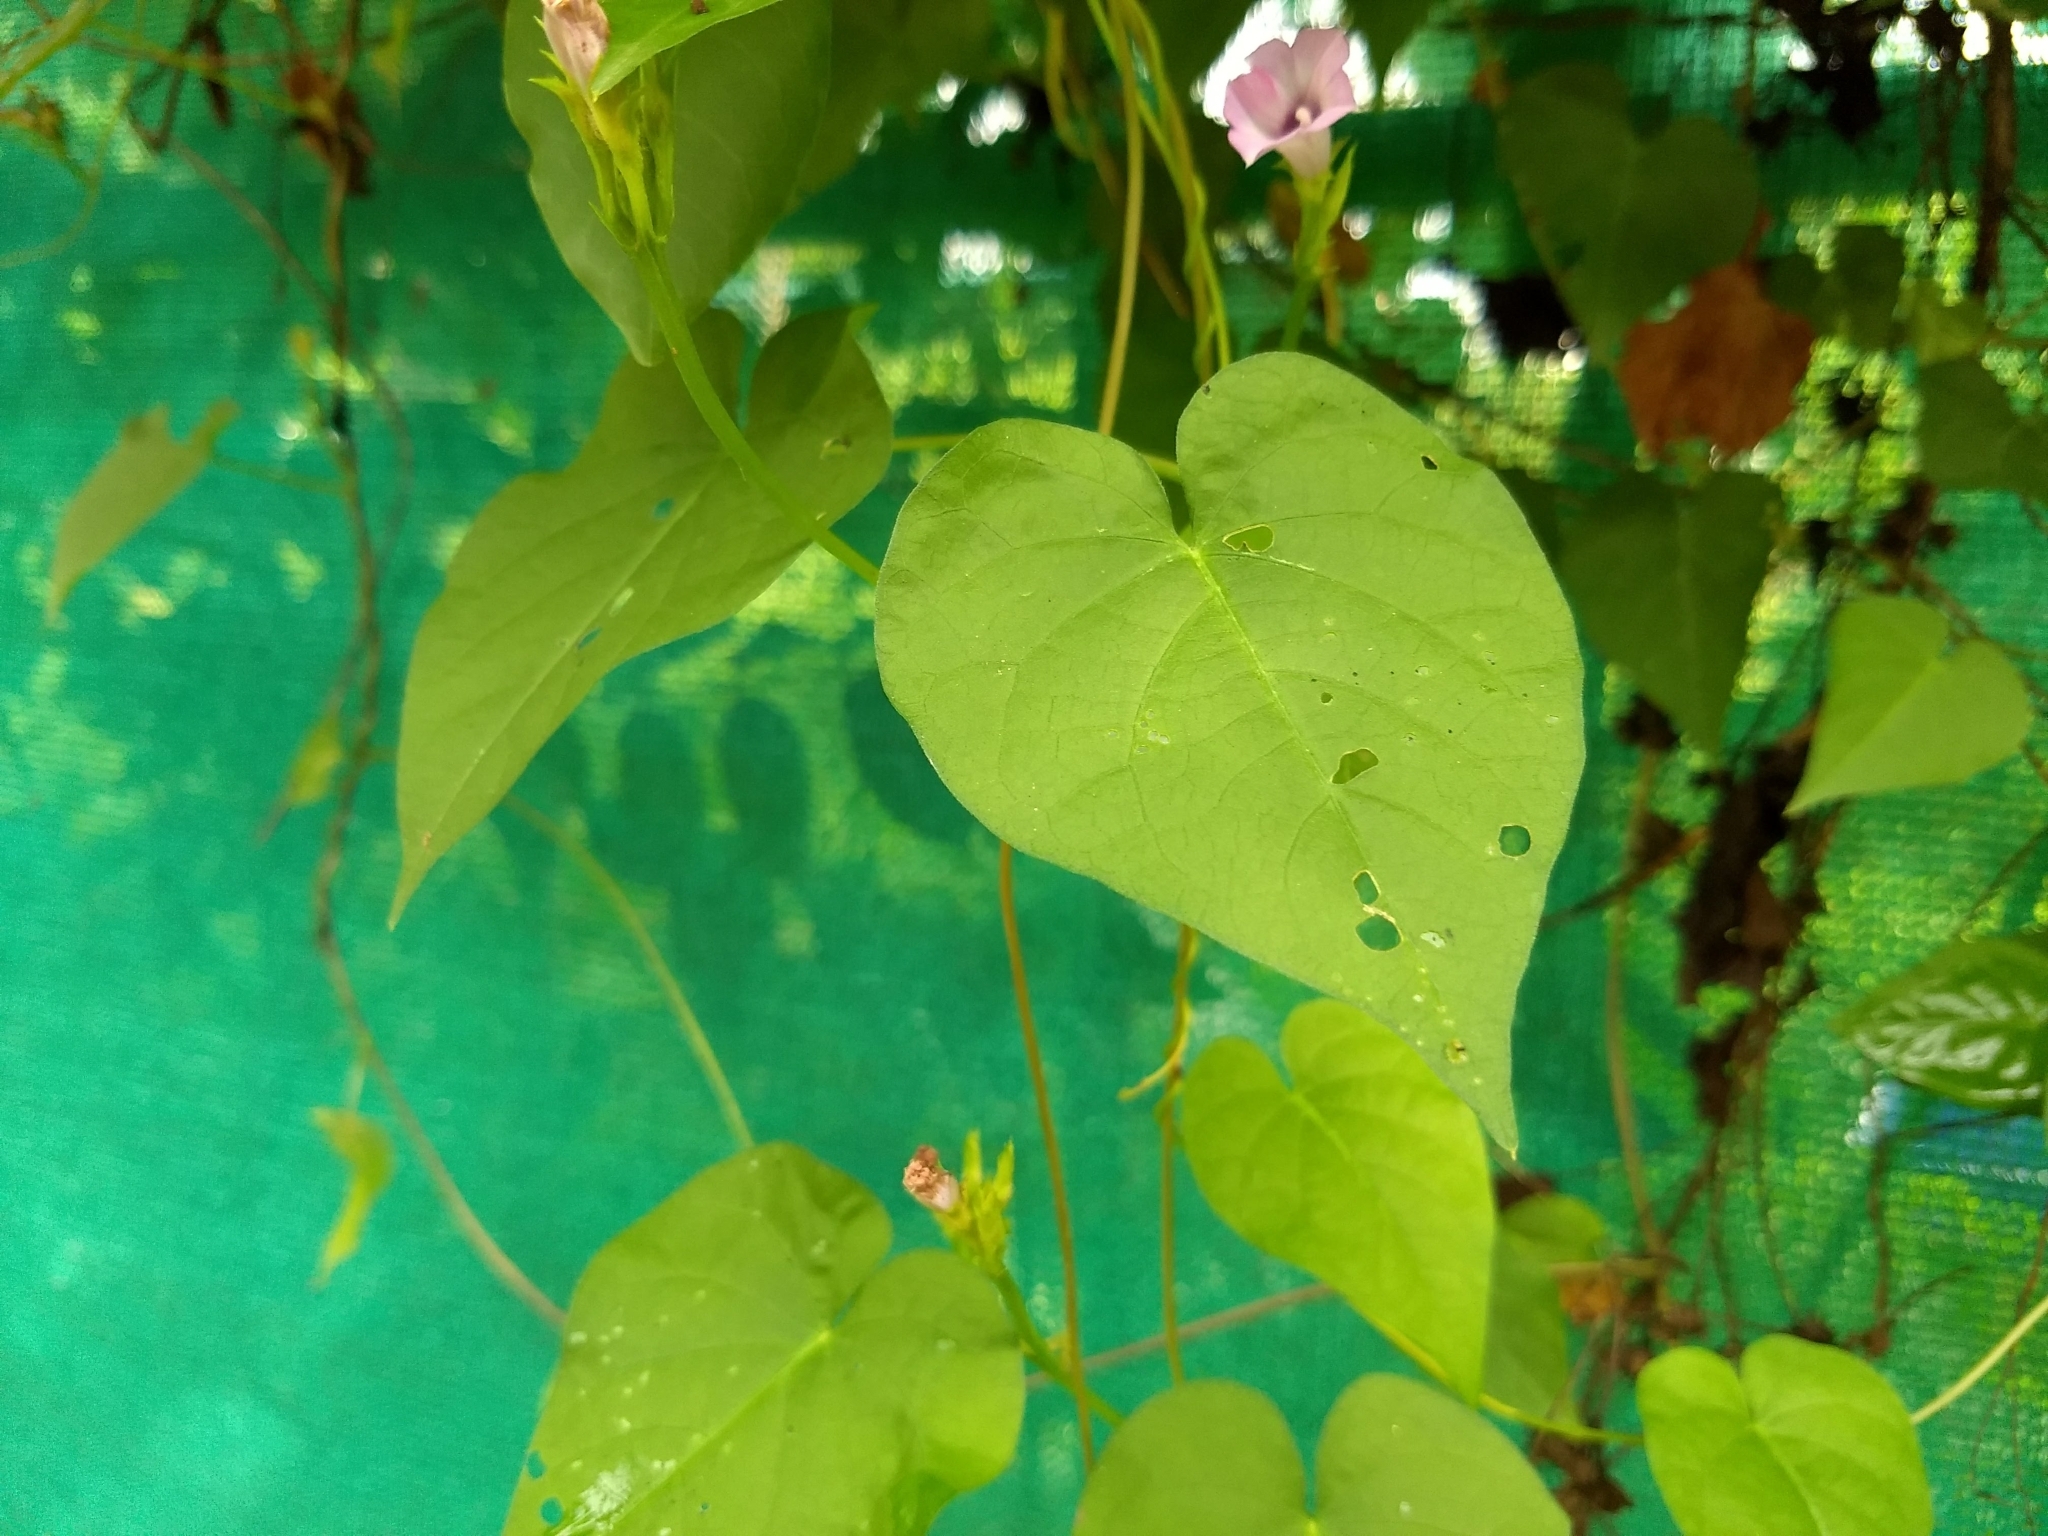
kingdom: Plantae
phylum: Tracheophyta
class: Magnoliopsida
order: Solanales
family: Convolvulaceae
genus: Ipomoea
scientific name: Ipomoea triloba
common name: Little-bell
